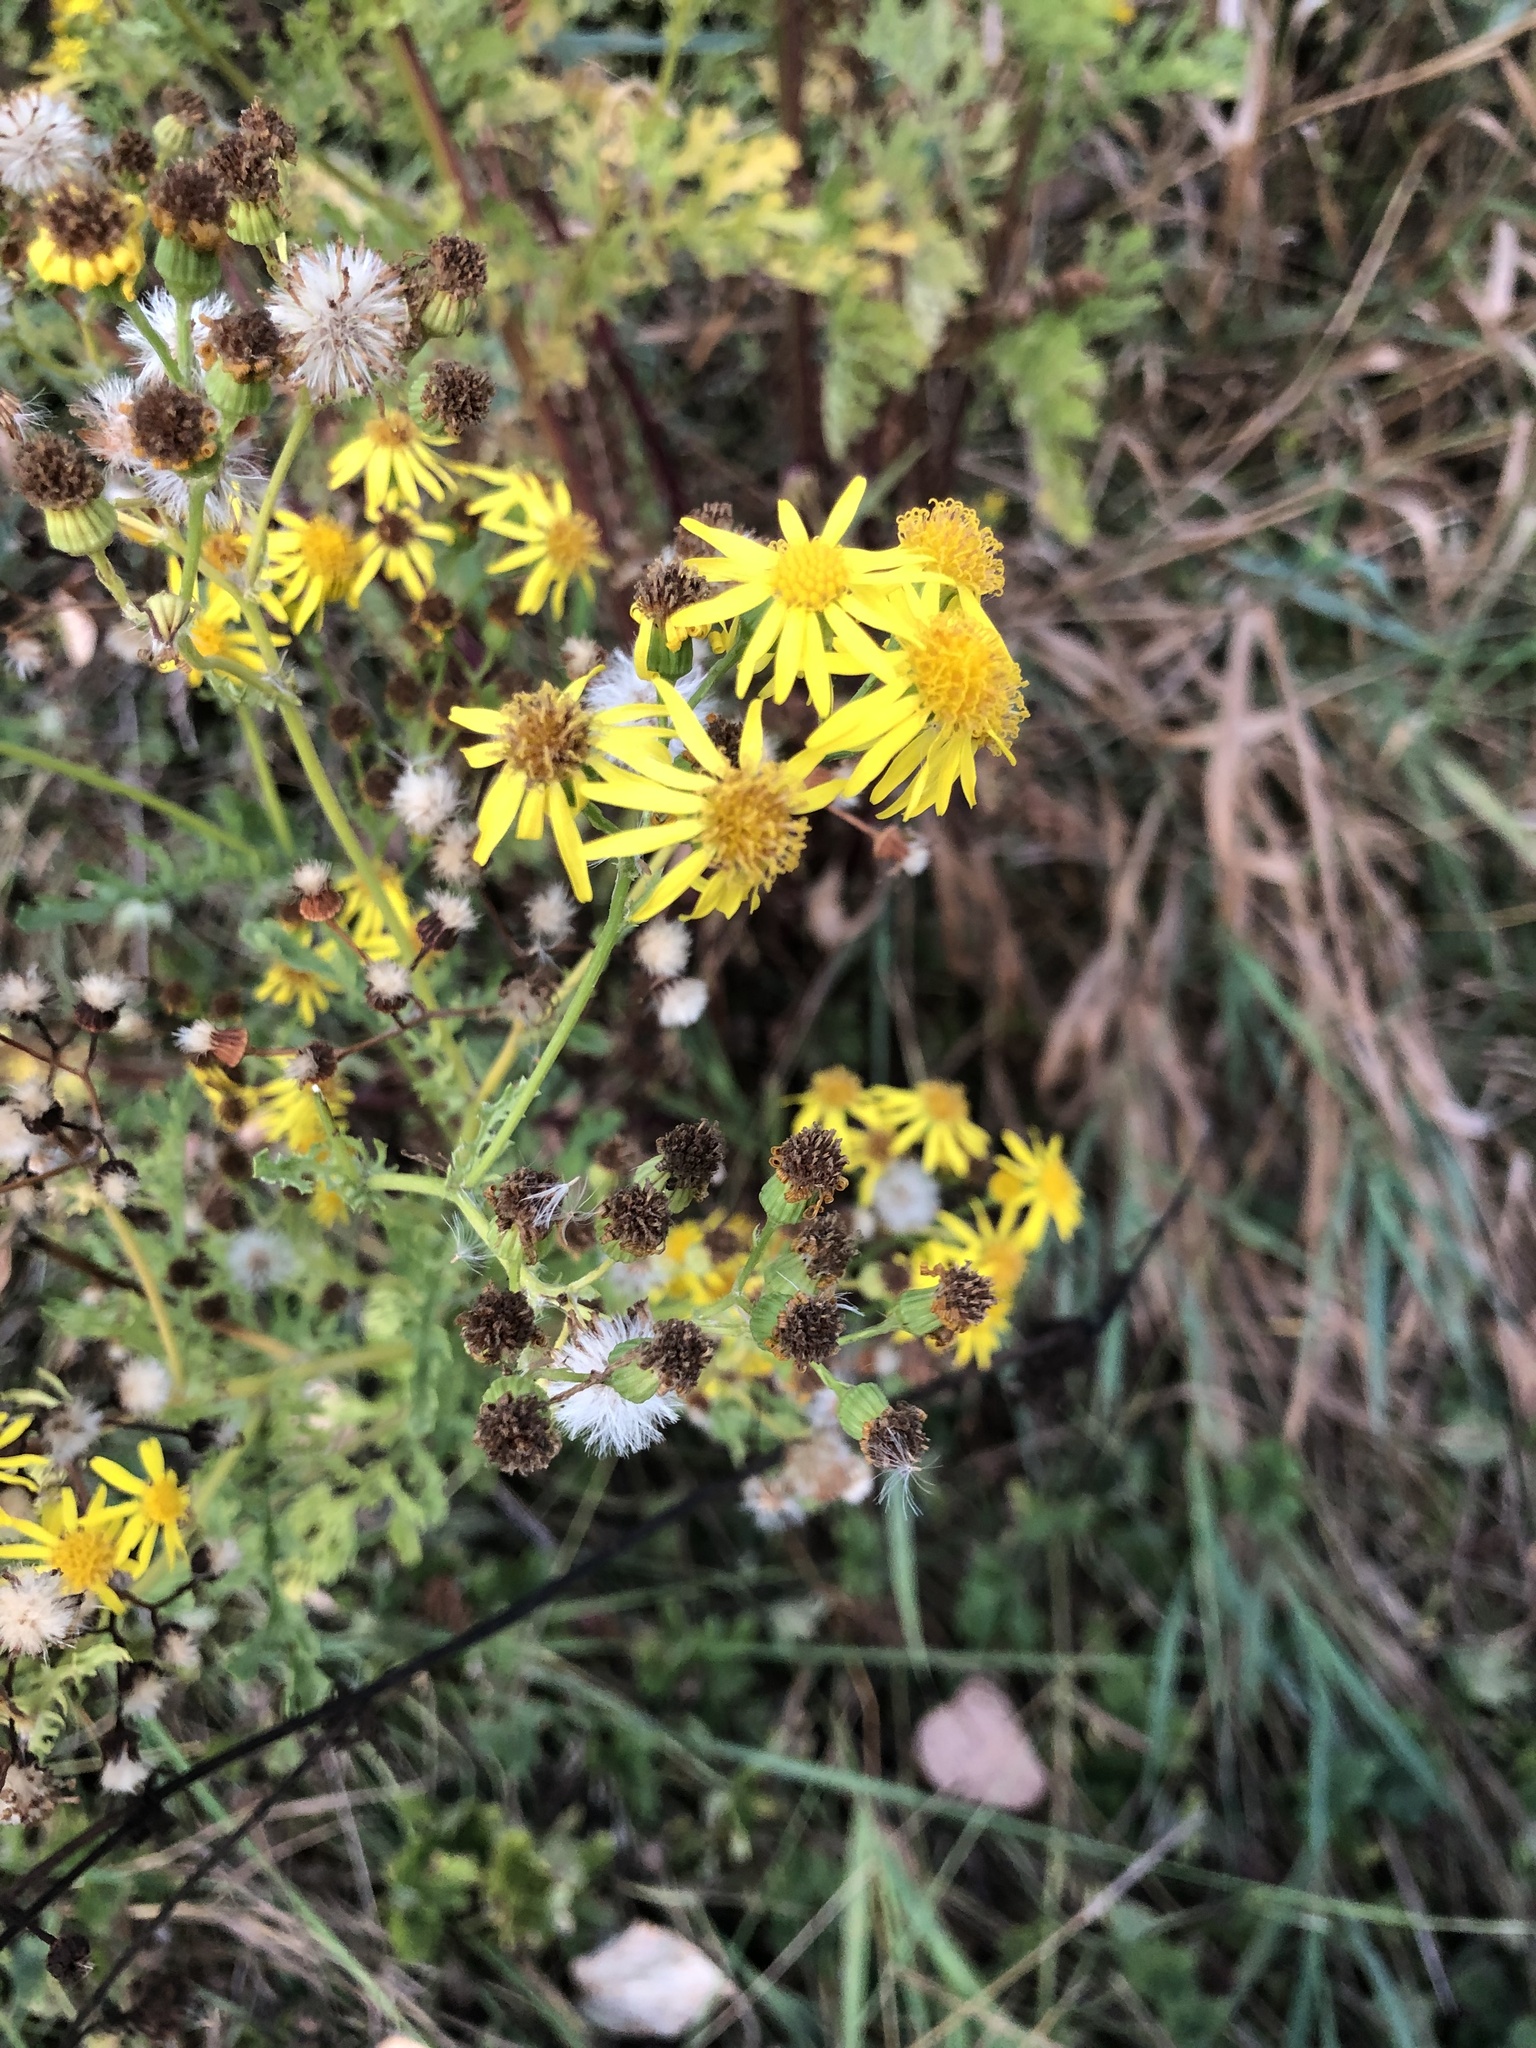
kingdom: Plantae
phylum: Tracheophyta
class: Magnoliopsida
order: Asterales
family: Asteraceae
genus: Jacobaea
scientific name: Jacobaea vulgaris
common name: Stinking willie
